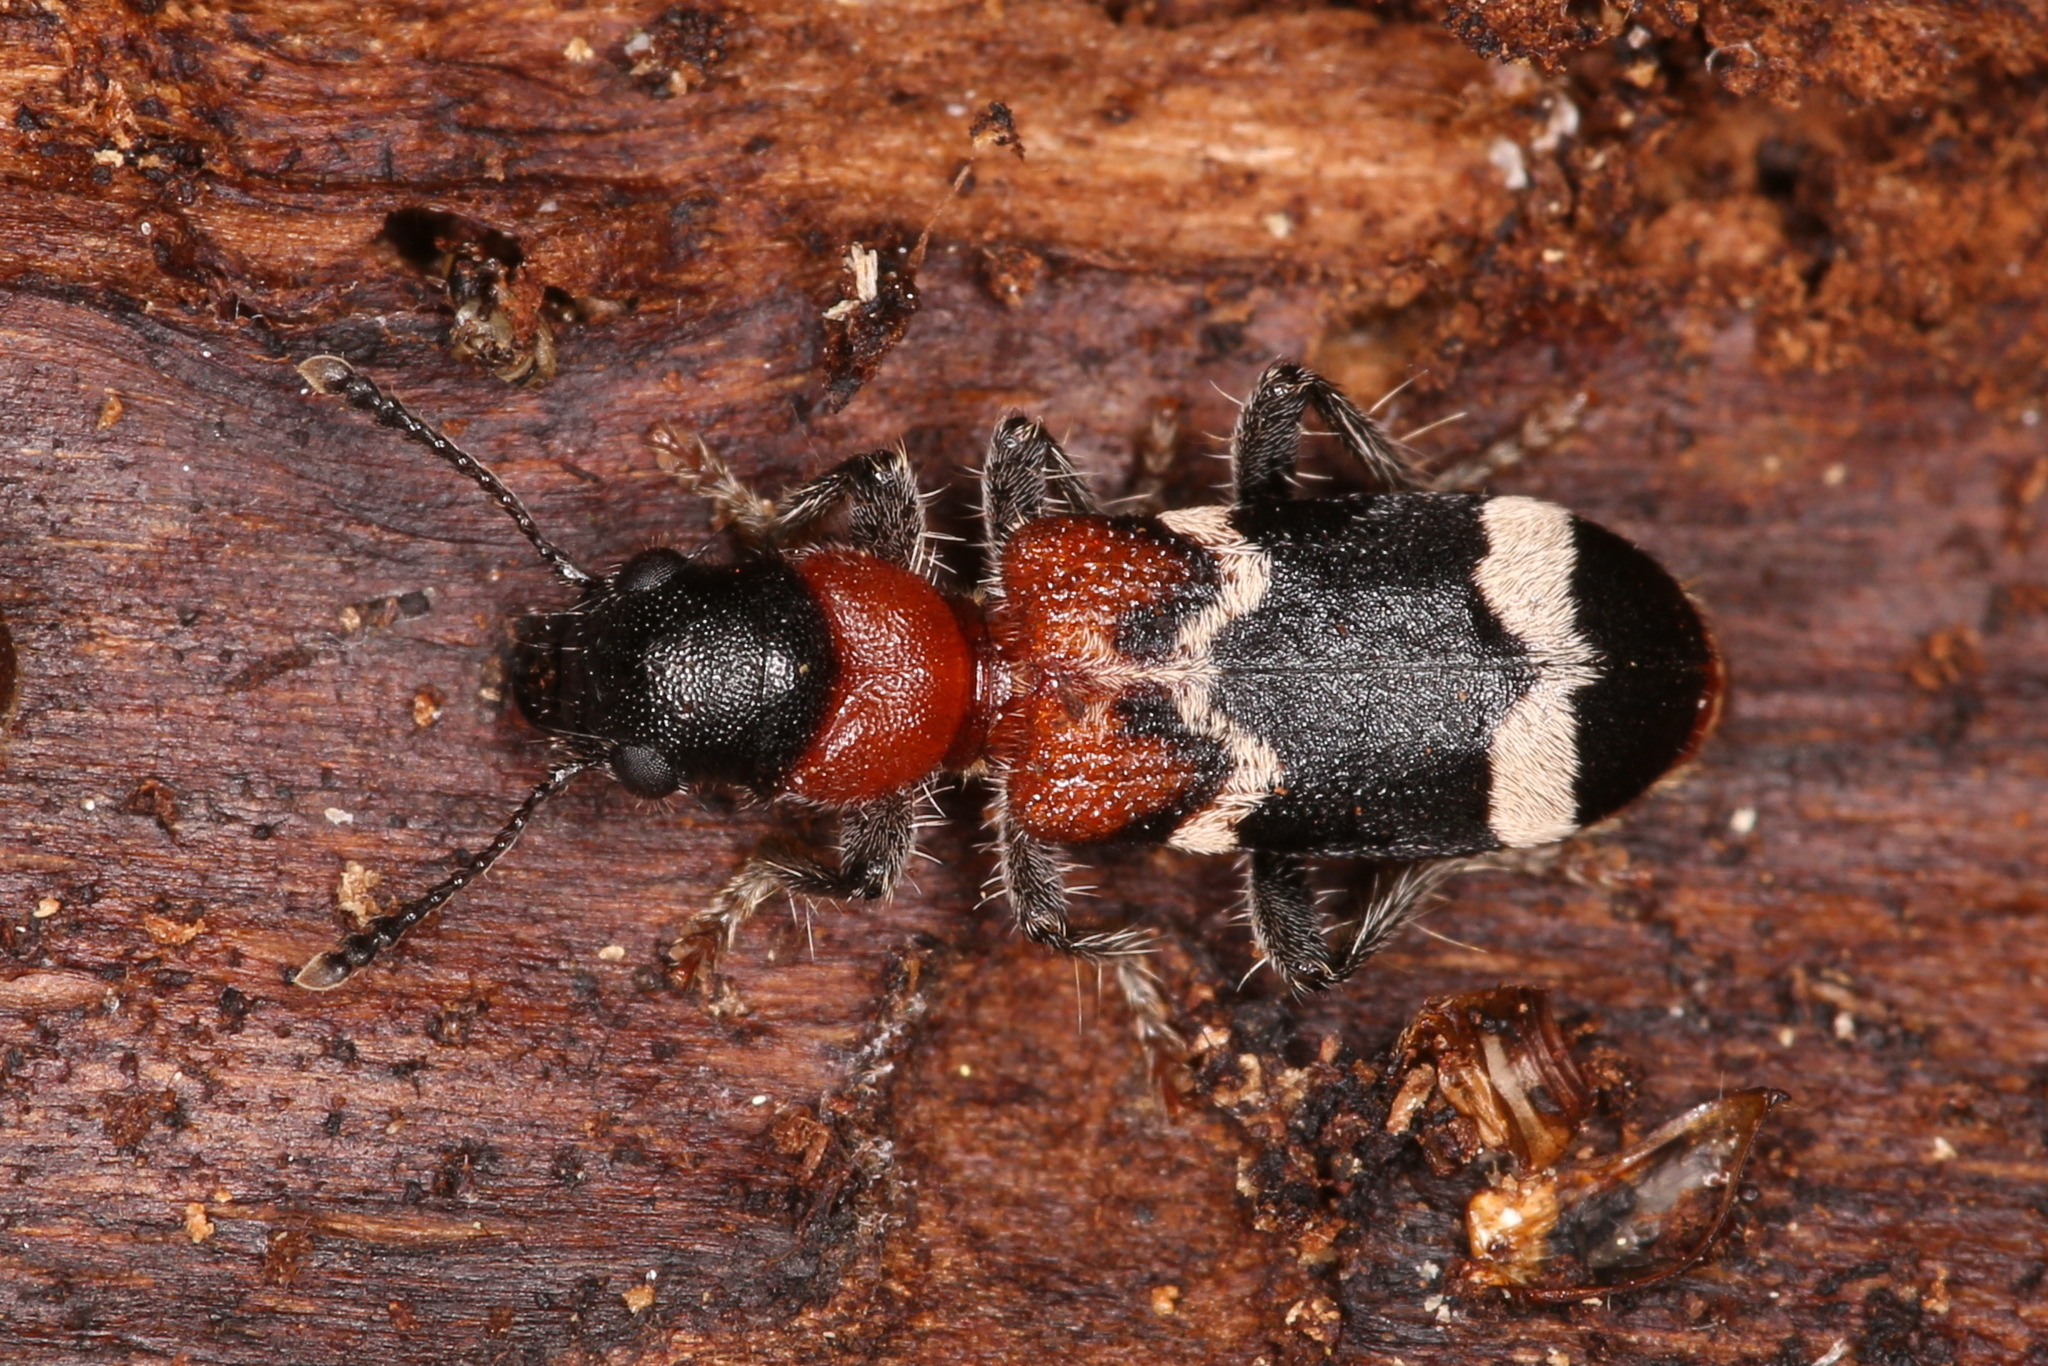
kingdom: Animalia
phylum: Arthropoda
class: Insecta
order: Coleoptera
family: Cleridae
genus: Thanasimus
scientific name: Thanasimus formicarius
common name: Ant beetle
